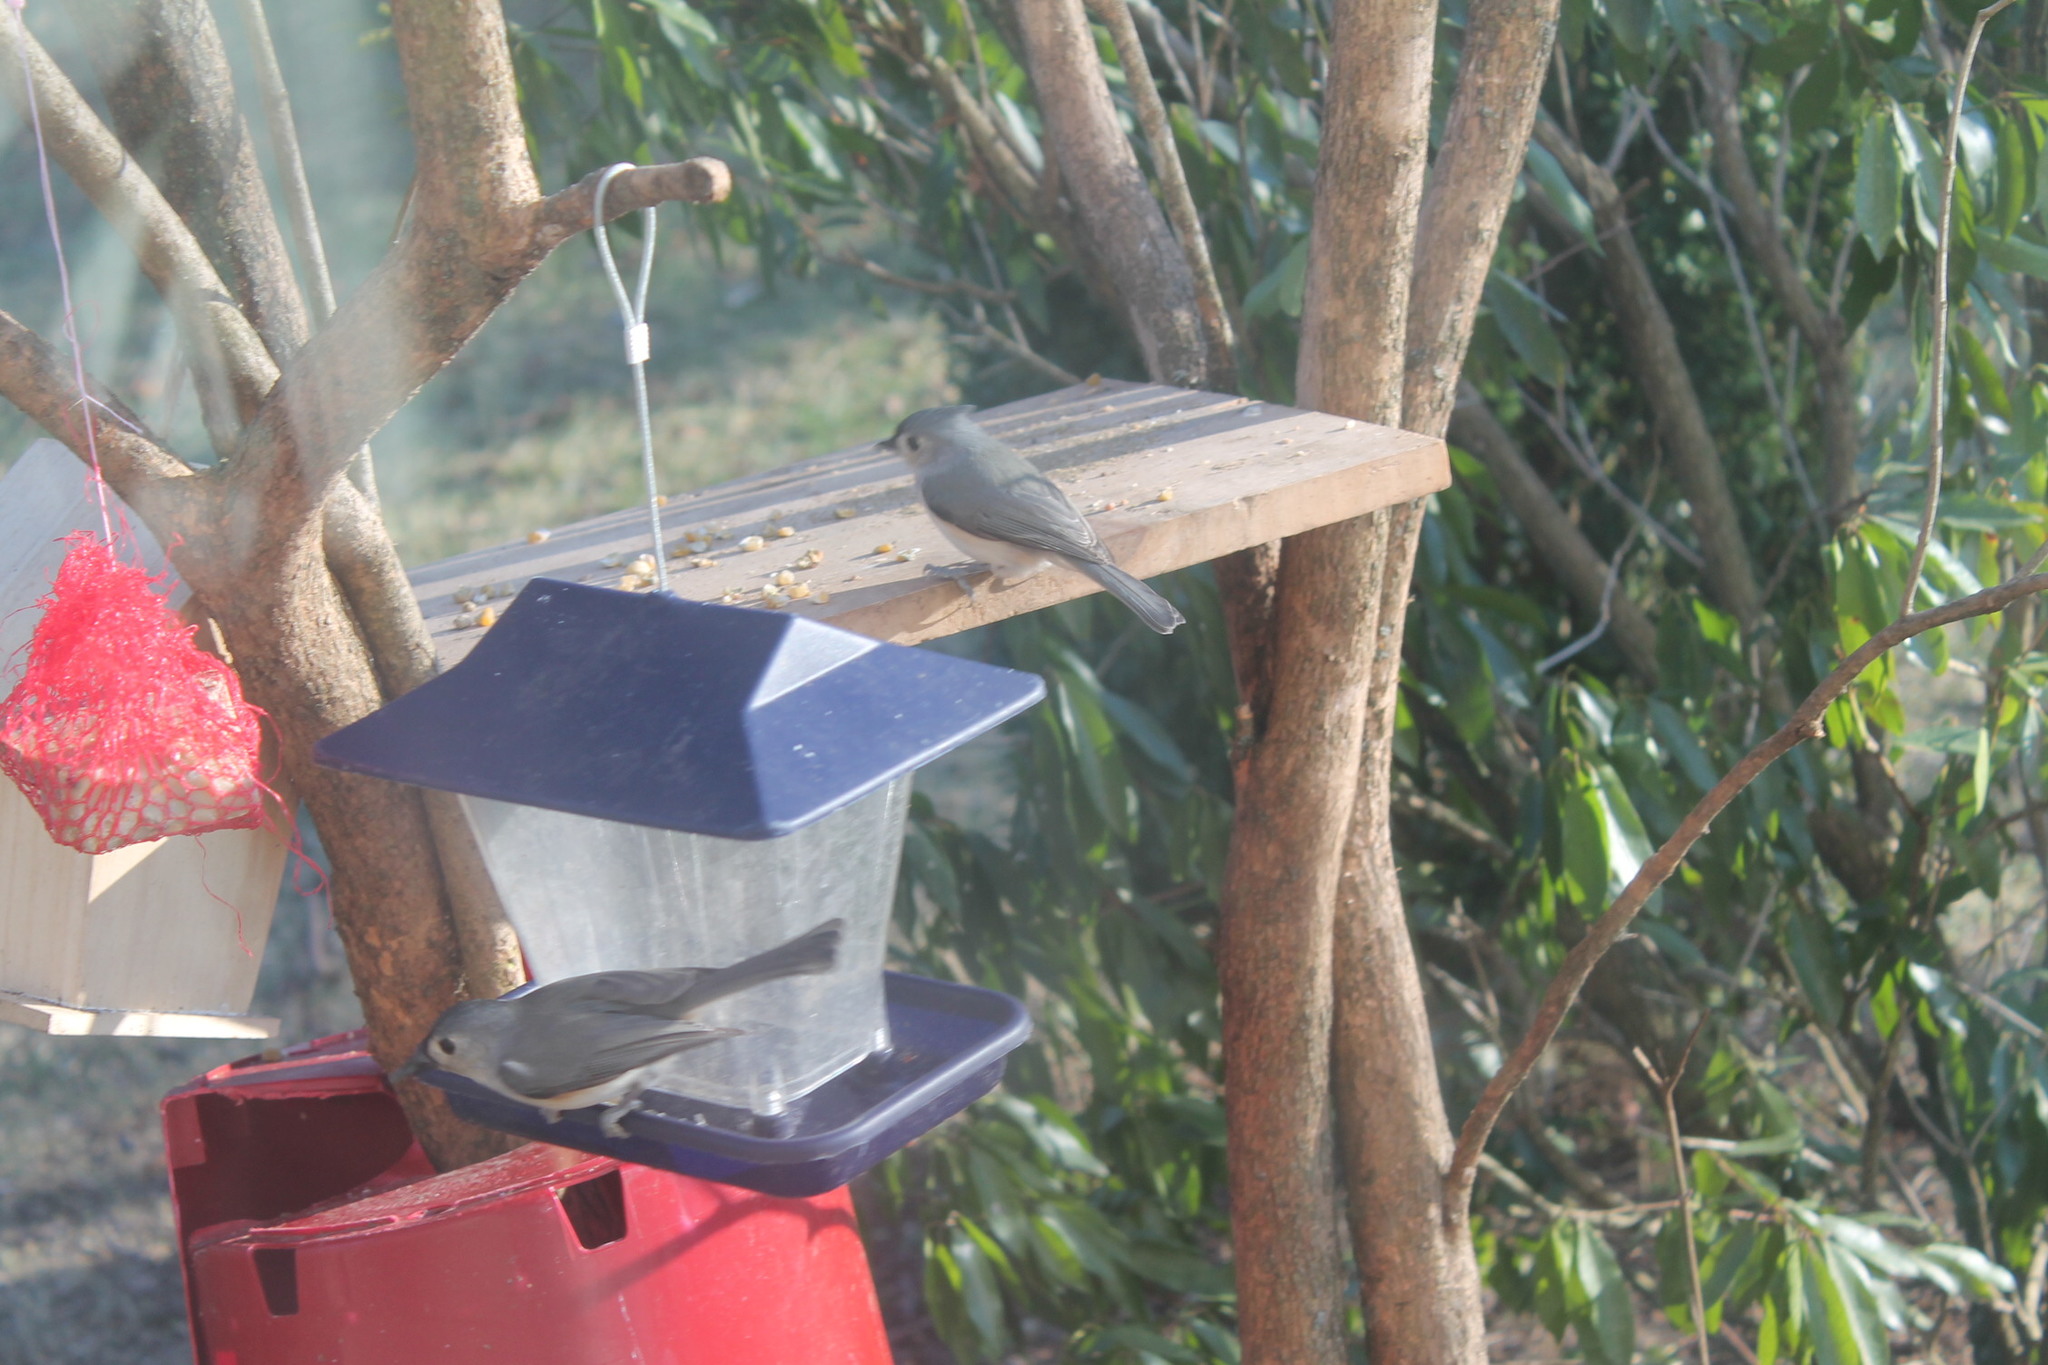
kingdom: Animalia
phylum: Chordata
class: Aves
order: Passeriformes
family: Paridae
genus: Baeolophus
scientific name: Baeolophus bicolor
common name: Tufted titmouse
